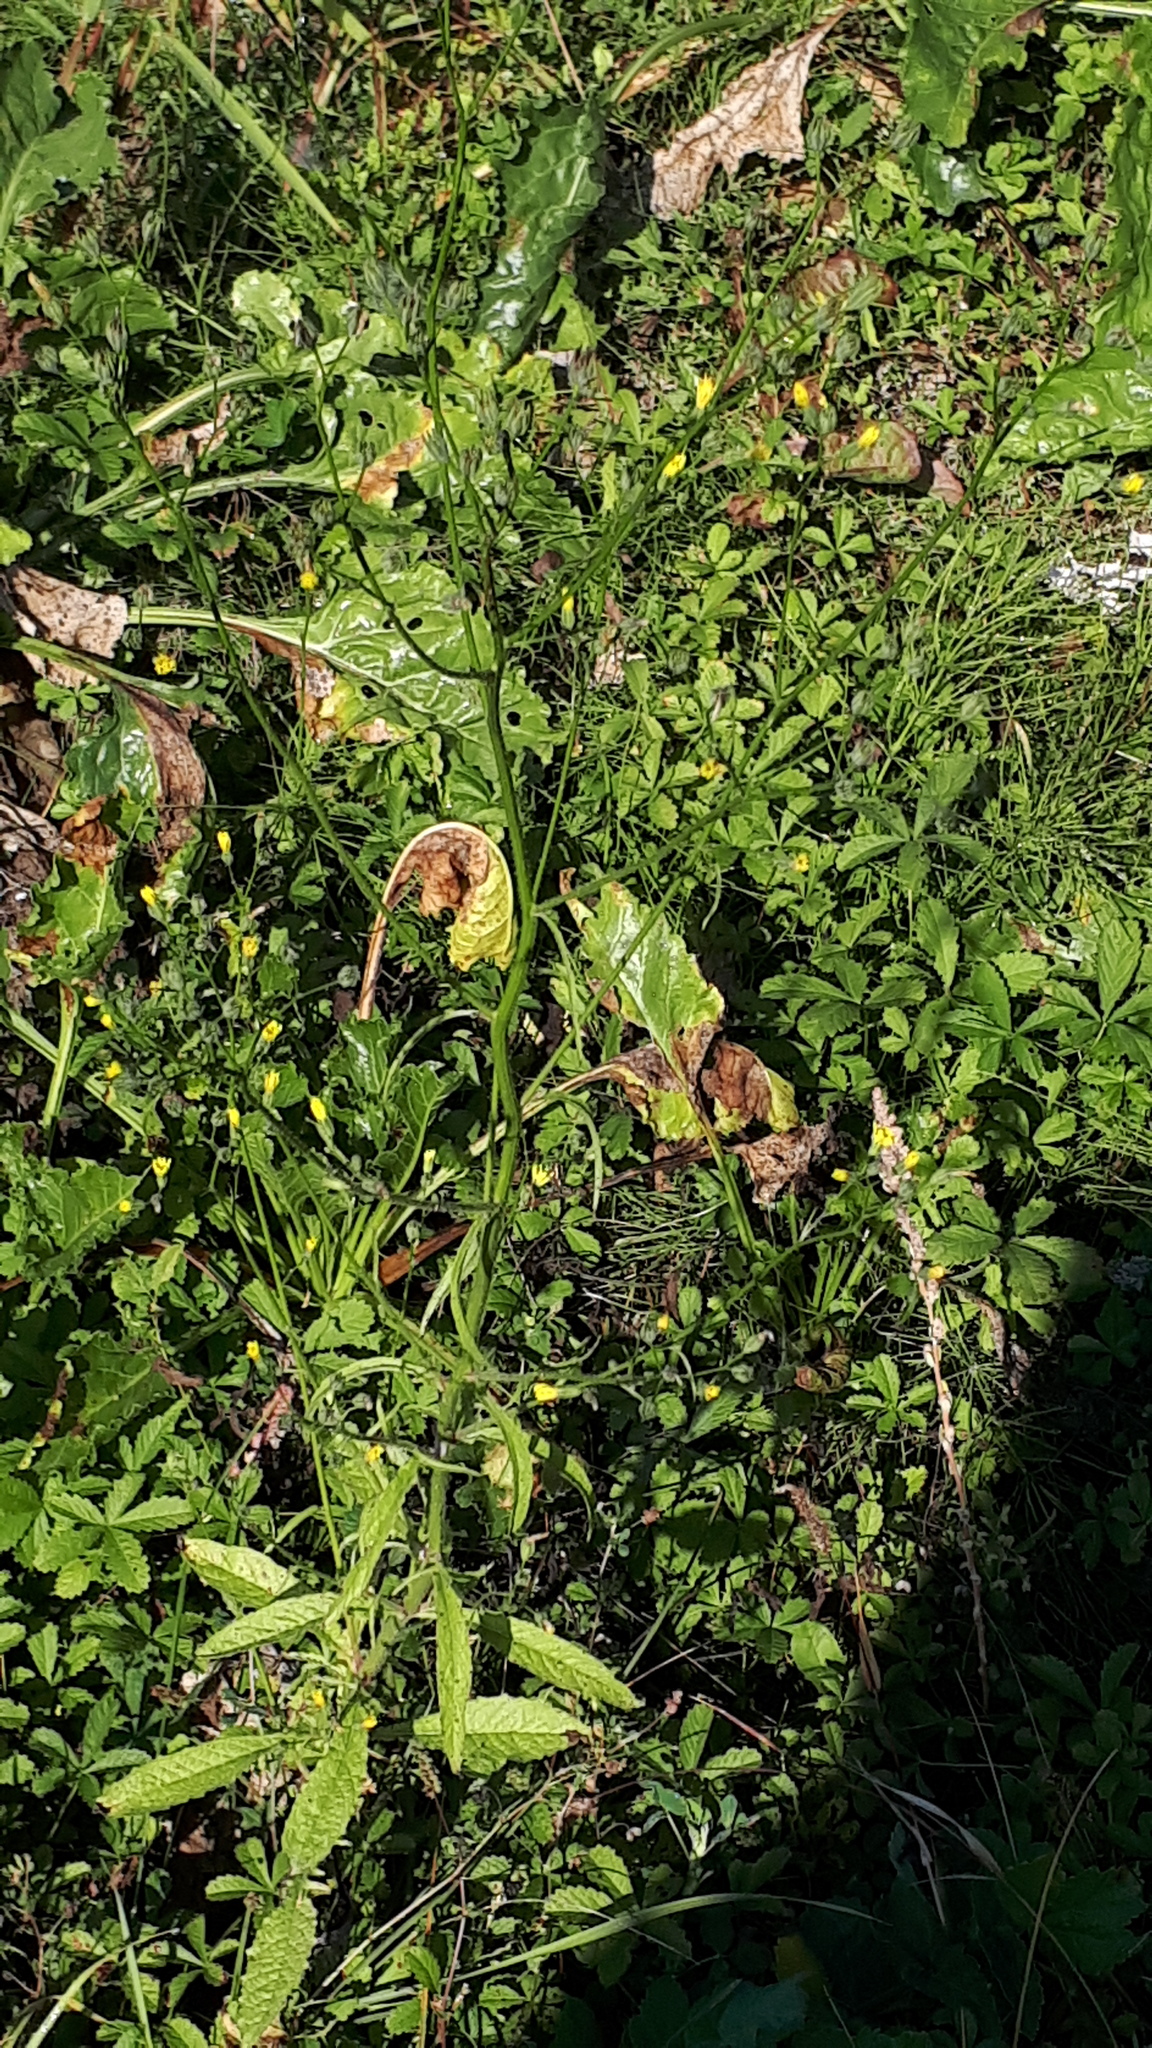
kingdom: Plantae
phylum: Tracheophyta
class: Magnoliopsida
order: Asterales
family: Asteraceae
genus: Lapsana
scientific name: Lapsana communis
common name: Nipplewort
